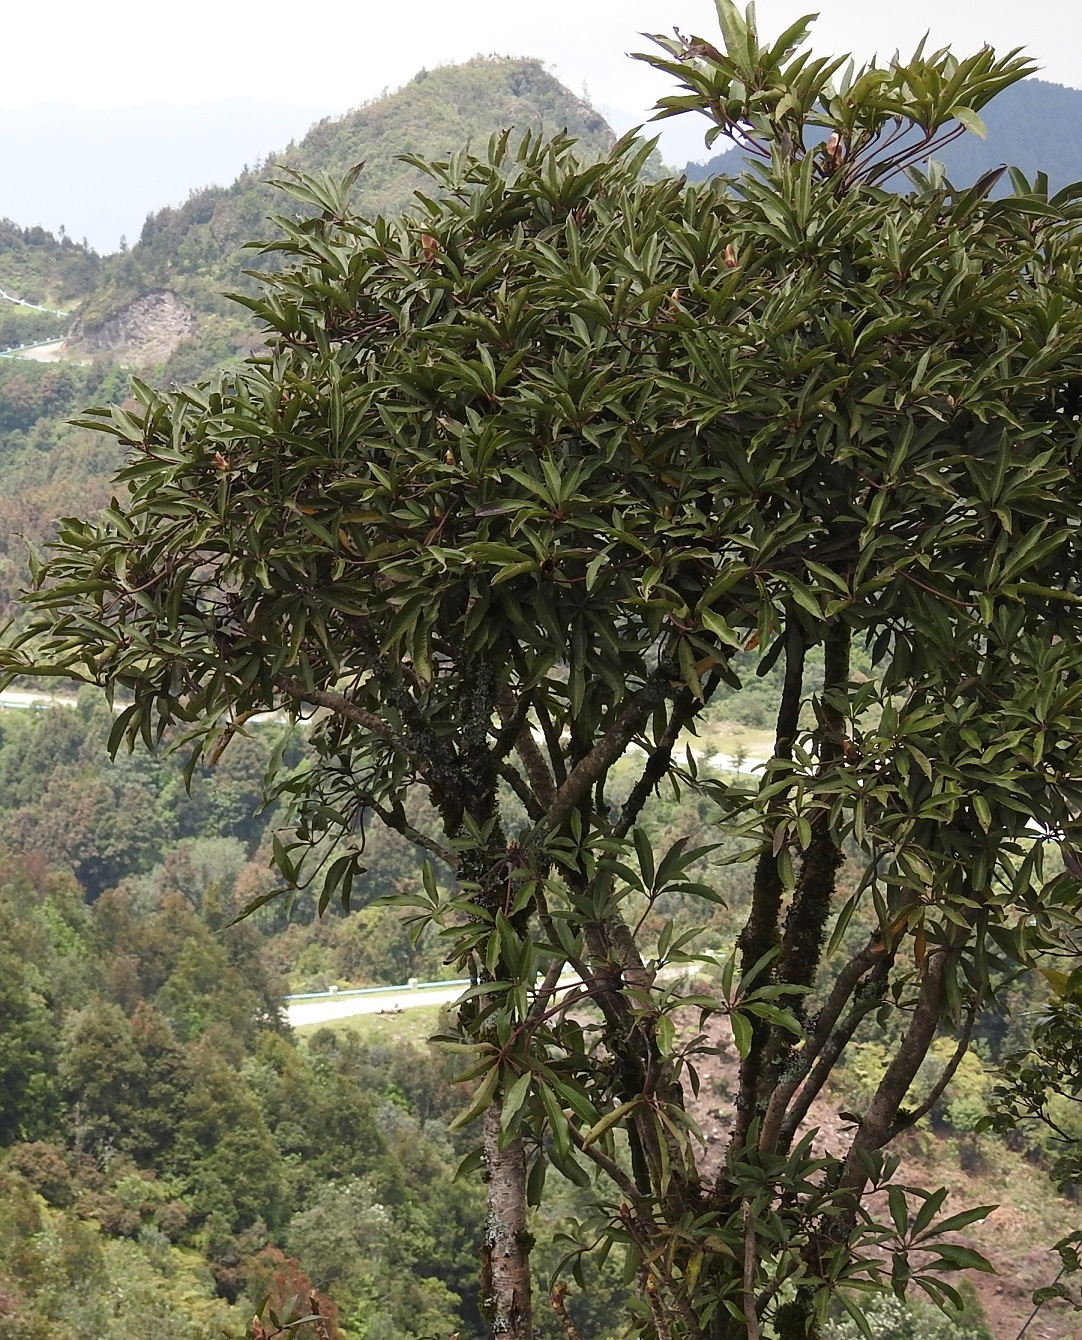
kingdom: Plantae
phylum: Tracheophyta
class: Magnoliopsida
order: Apiales
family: Araliaceae
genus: Oreopanax
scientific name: Oreopanax xalapensis
